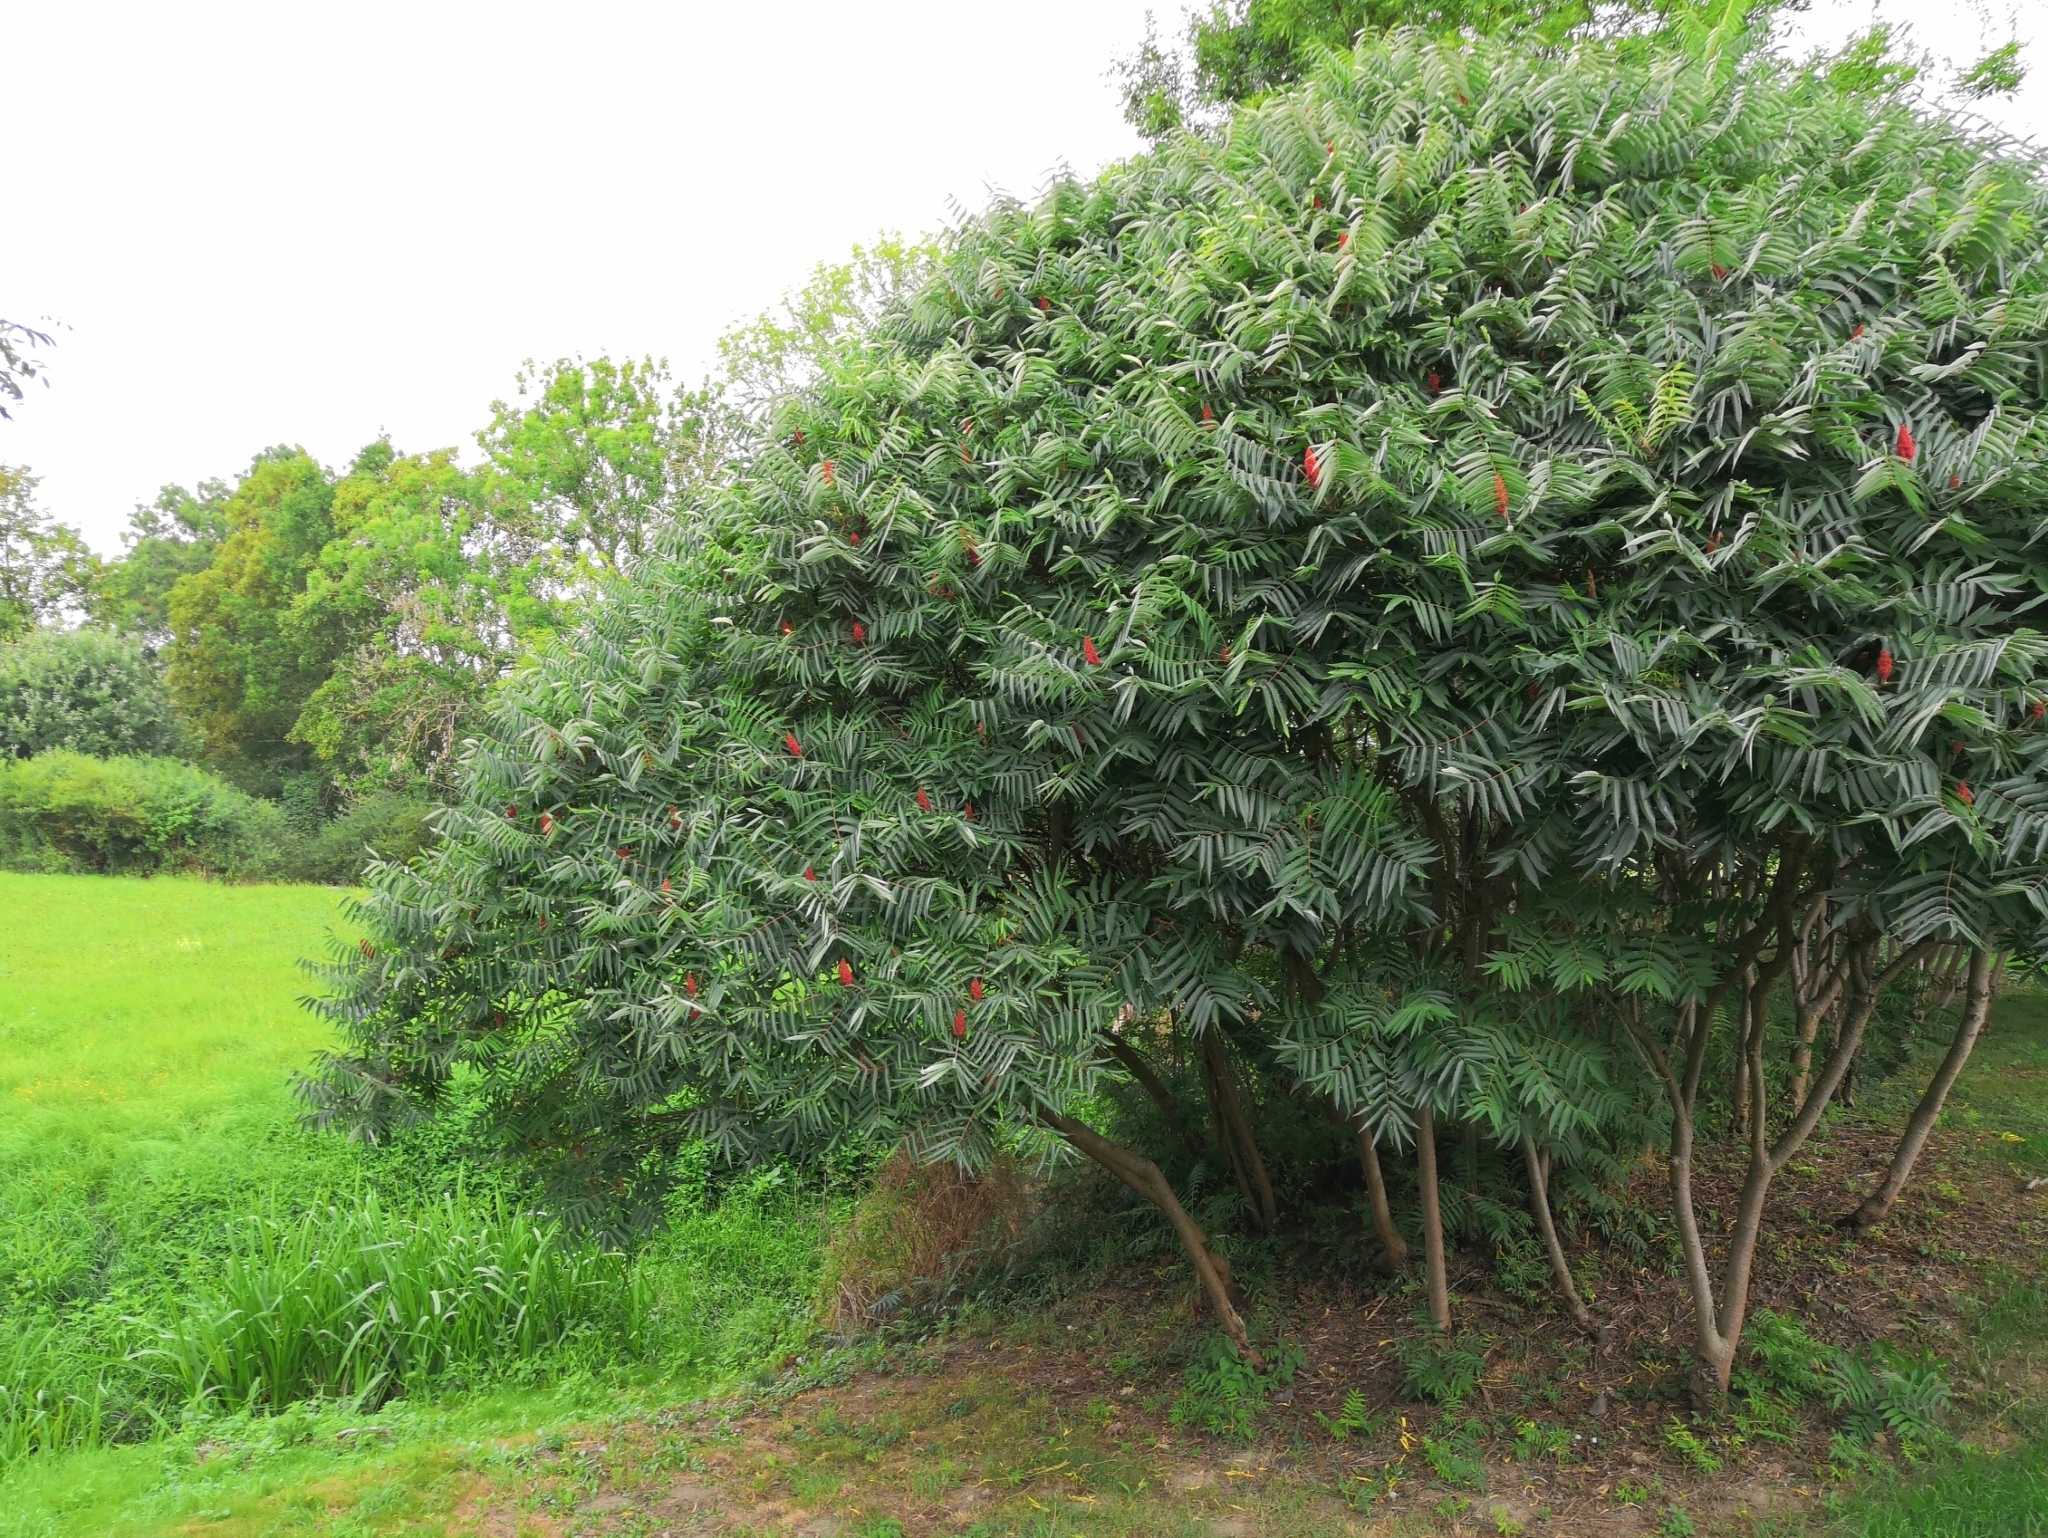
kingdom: Plantae
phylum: Tracheophyta
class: Magnoliopsida
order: Sapindales
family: Anacardiaceae
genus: Rhus
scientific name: Rhus typhina
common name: Staghorn sumac
